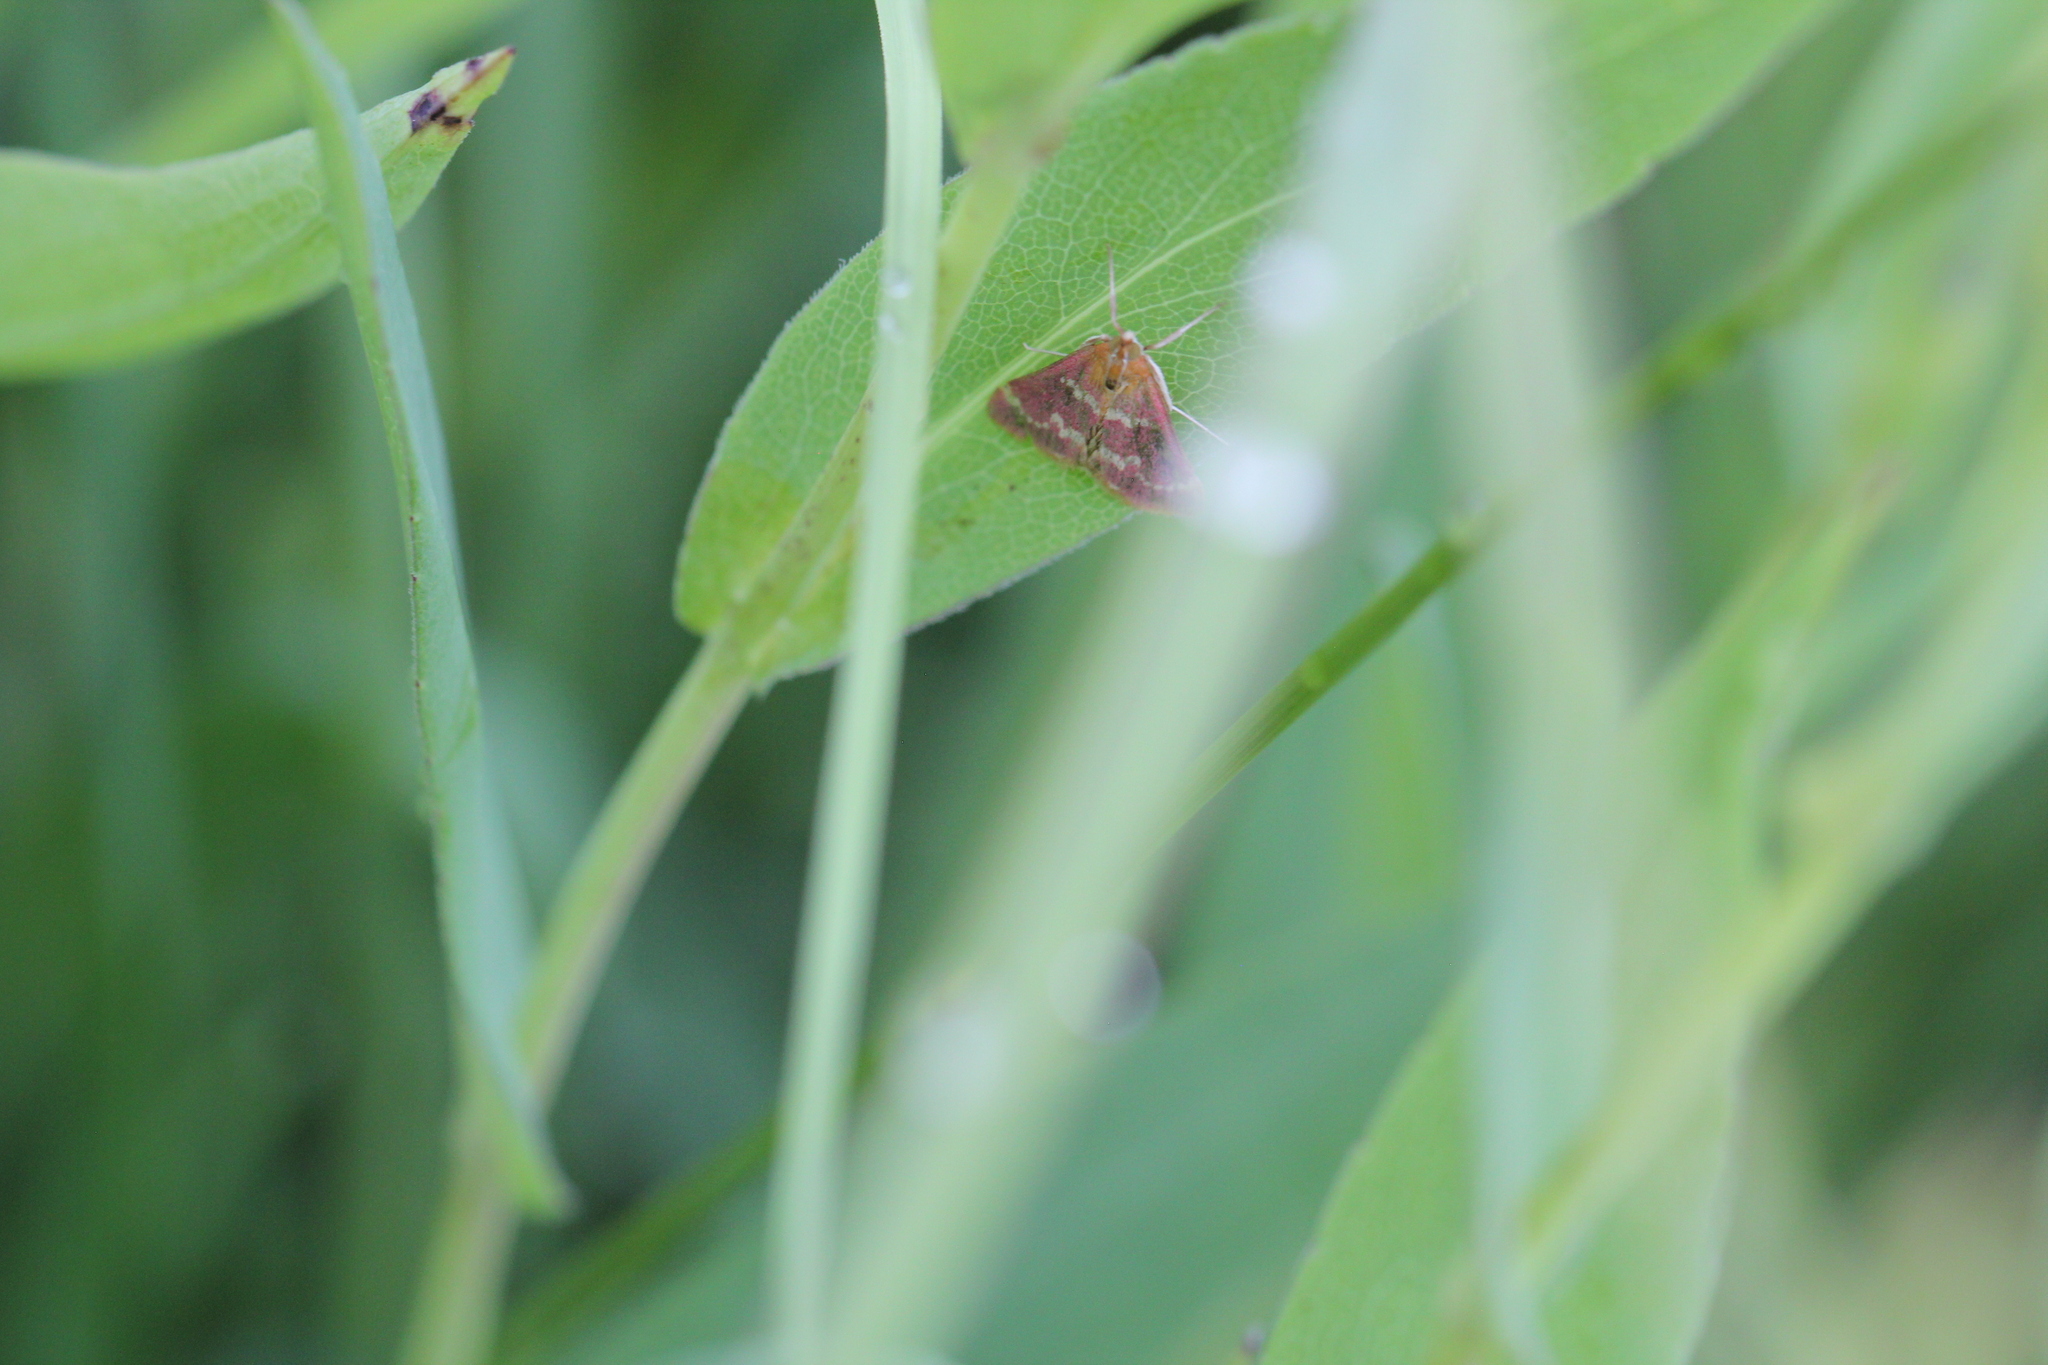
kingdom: Animalia
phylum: Arthropoda
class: Insecta
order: Lepidoptera
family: Crambidae
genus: Pyrausta
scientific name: Pyrausta signatalis
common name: Raspberry pyrausta moth
